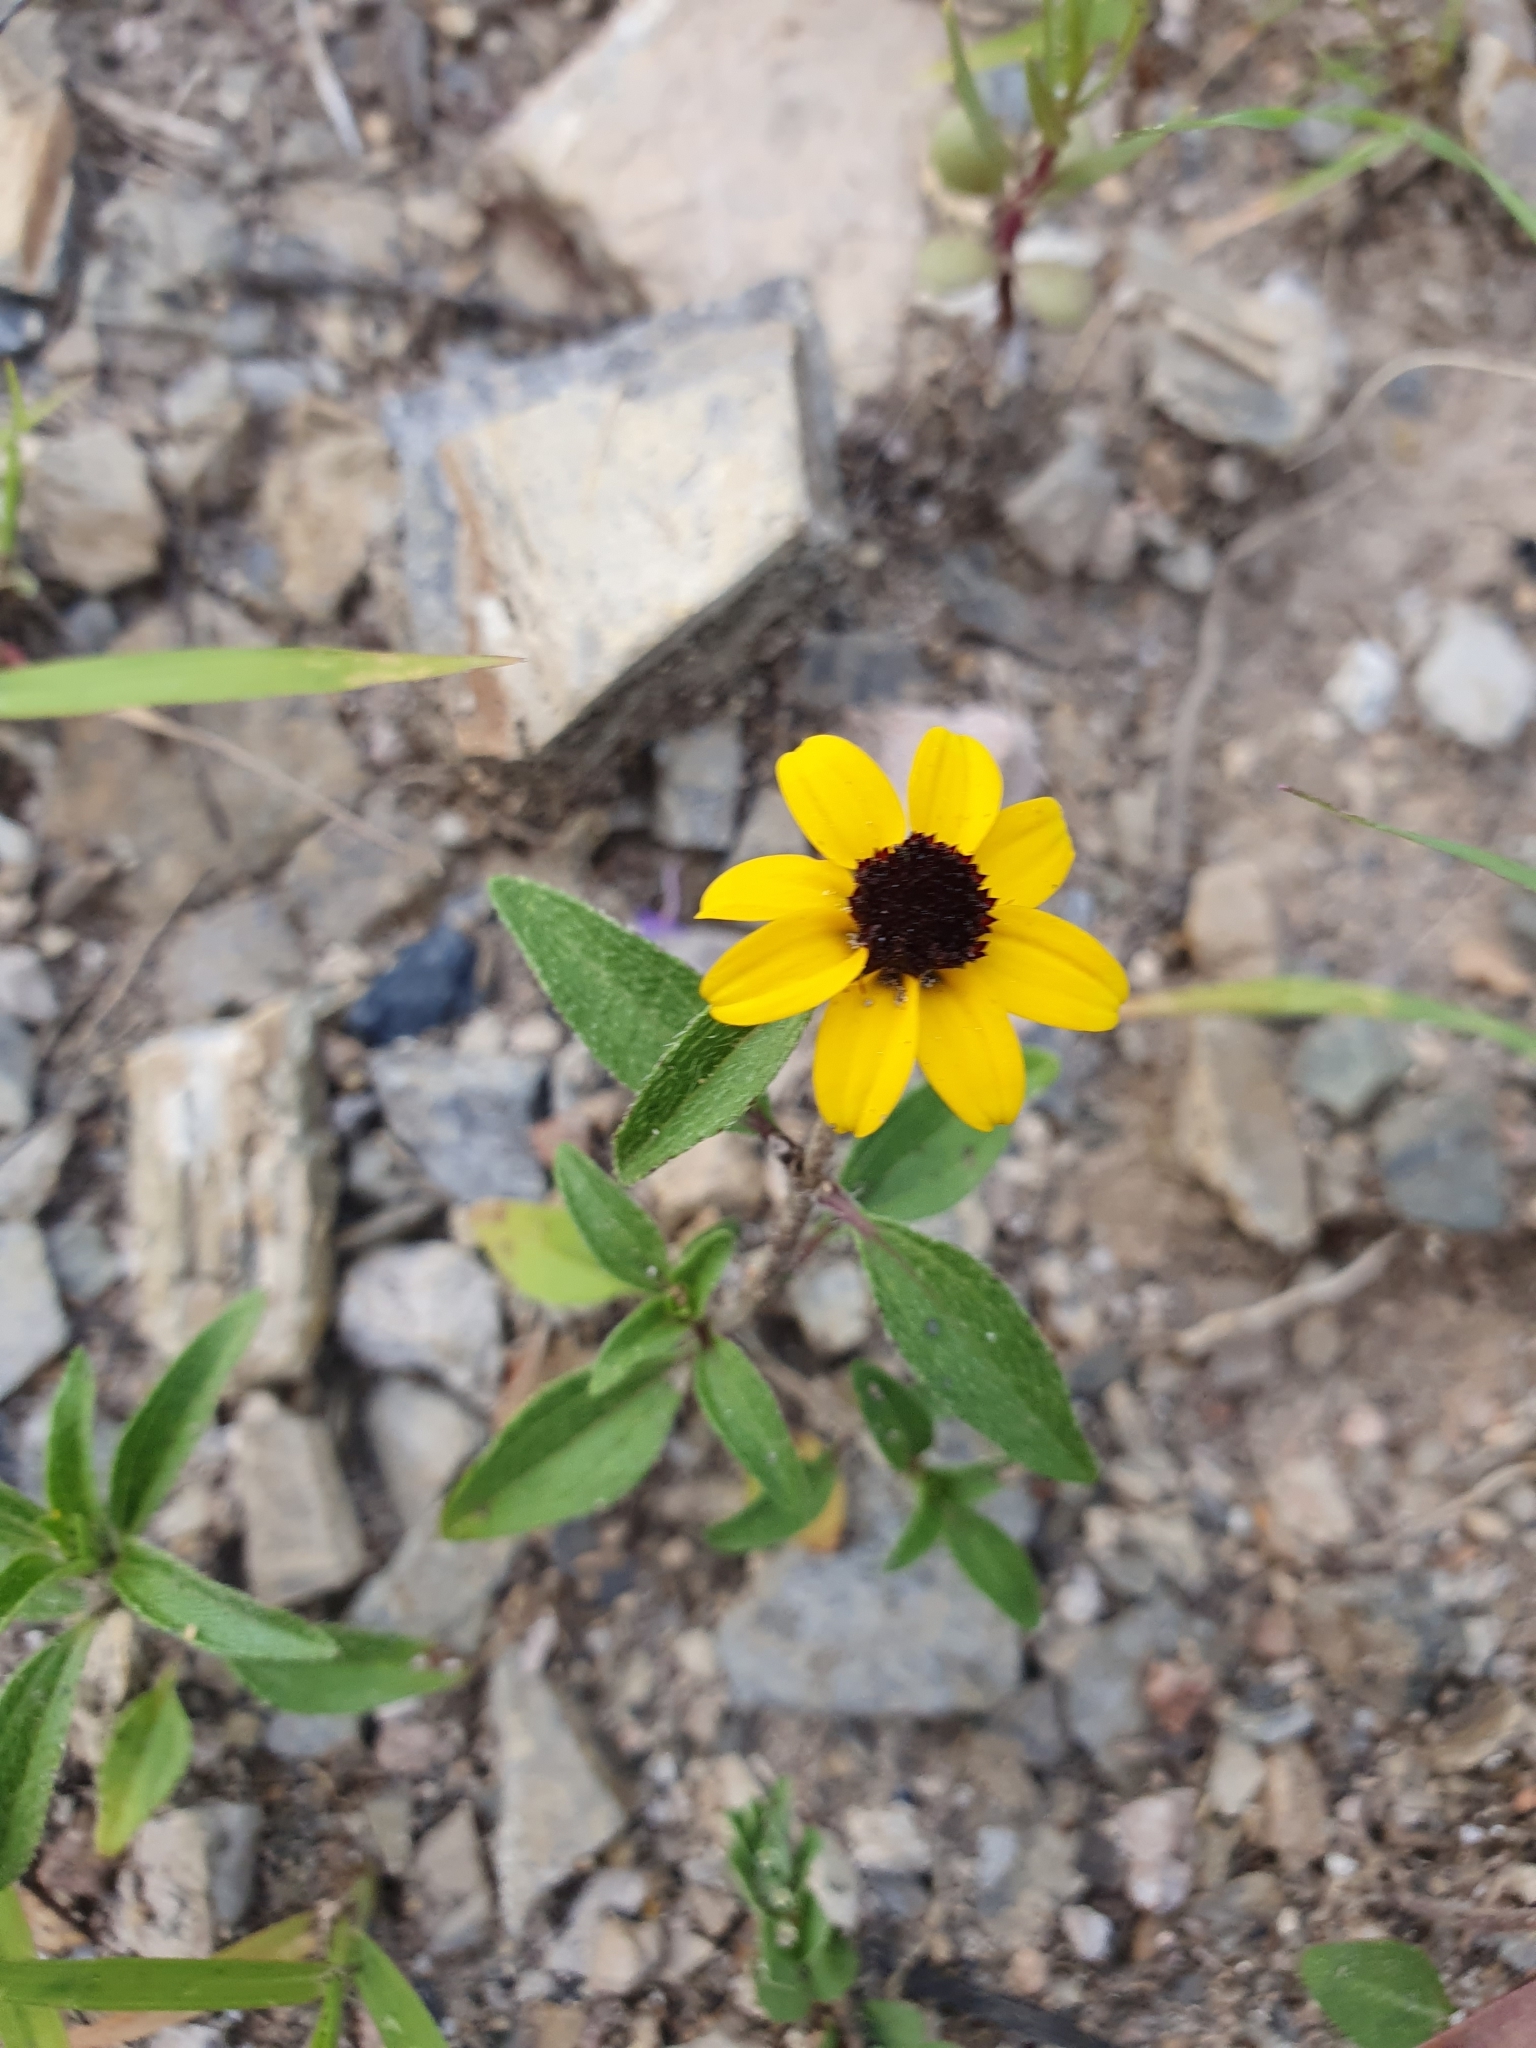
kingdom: Plantae
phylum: Tracheophyta
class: Magnoliopsida
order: Asterales
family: Asteraceae
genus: Sanvitalia
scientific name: Sanvitalia procumbens
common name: Mexican creeping zinnia
